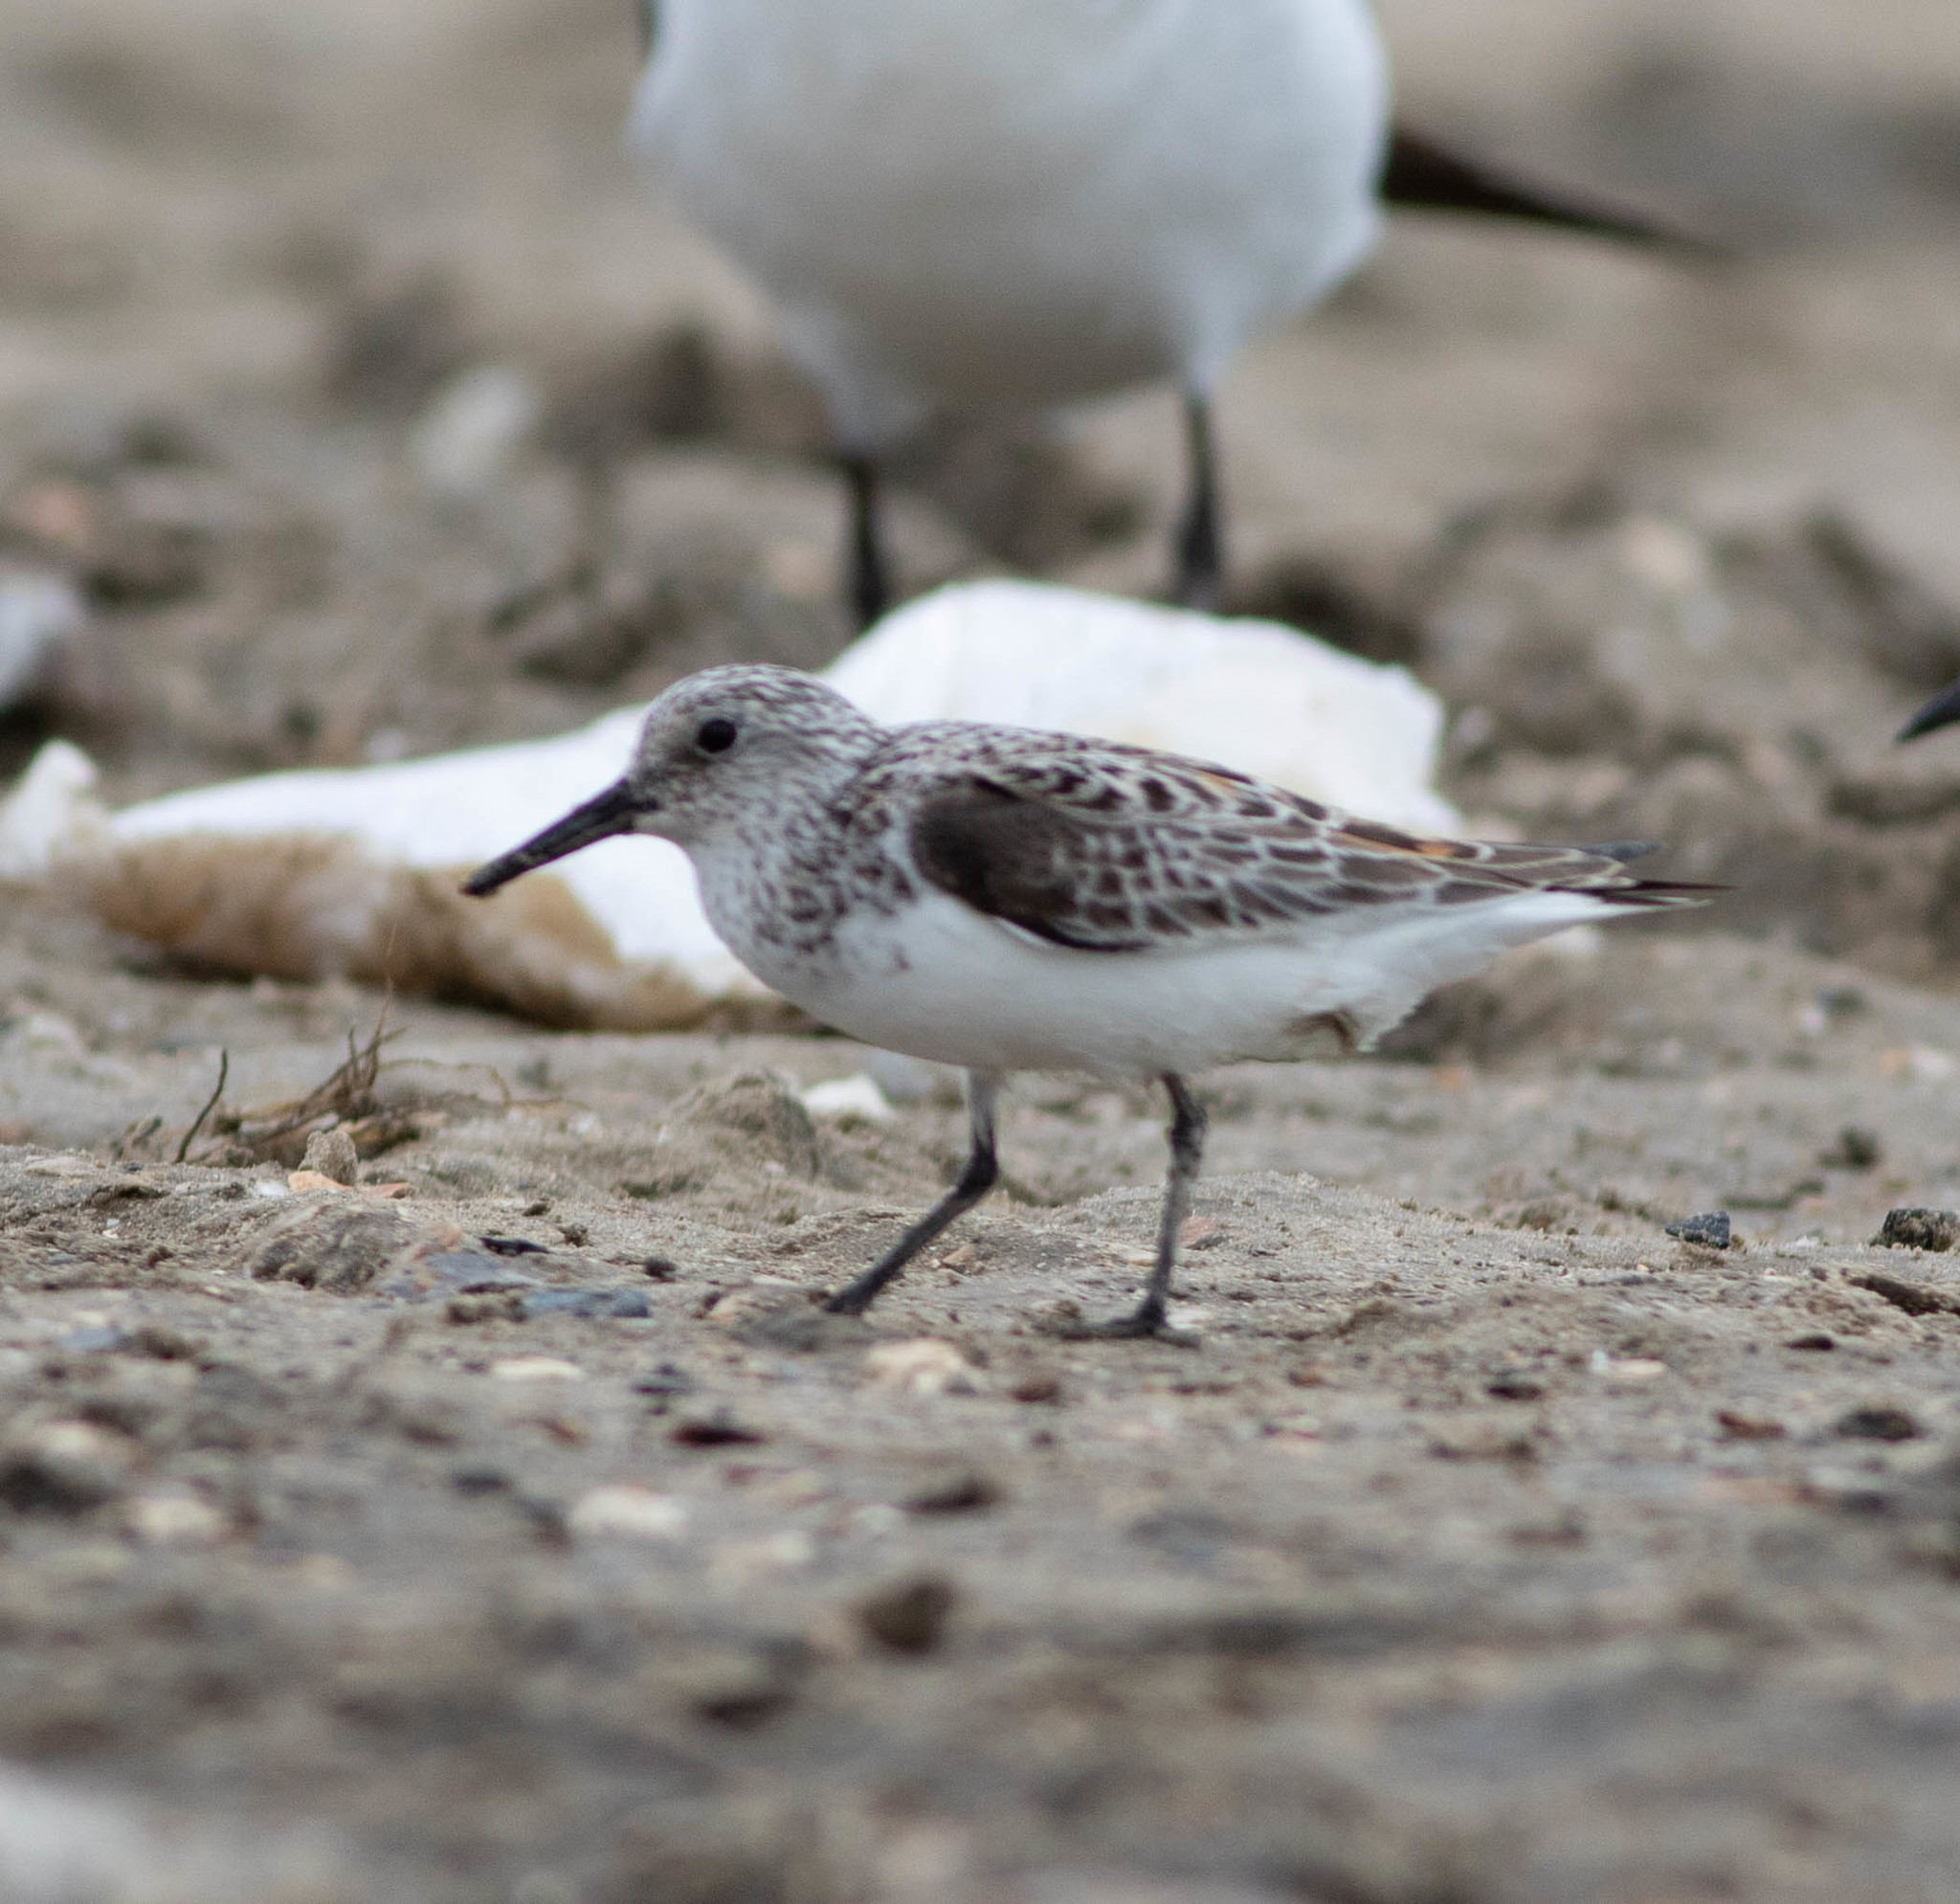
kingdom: Animalia
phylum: Chordata
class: Aves
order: Charadriiformes
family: Scolopacidae
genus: Calidris
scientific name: Calidris alba
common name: Sanderling
